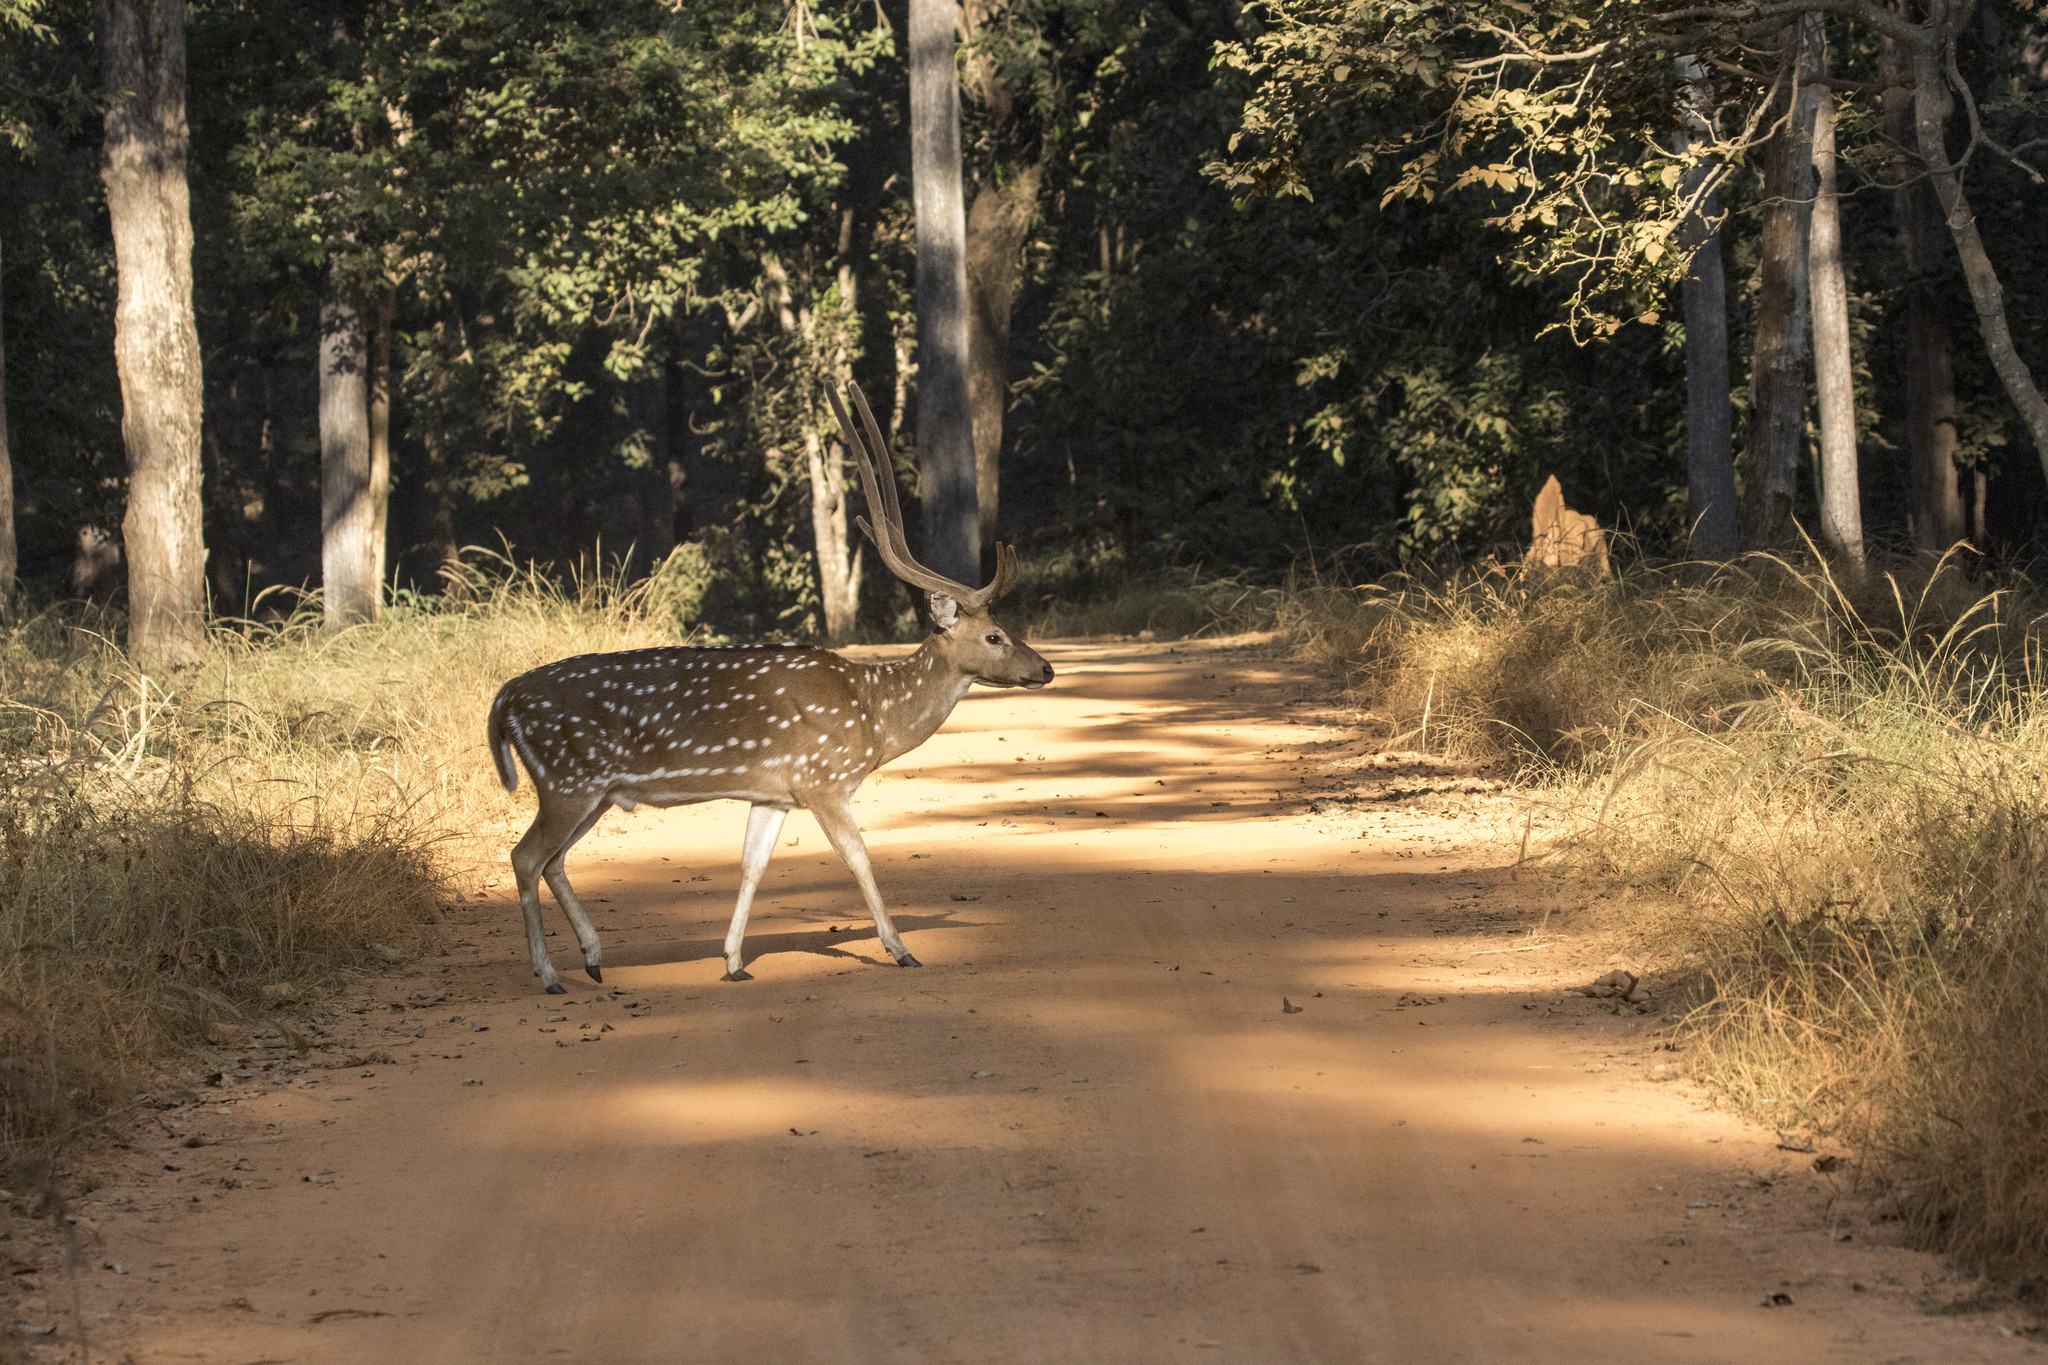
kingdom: Animalia
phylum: Chordata
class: Mammalia
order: Artiodactyla
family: Cervidae
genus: Axis
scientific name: Axis axis
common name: Chital
